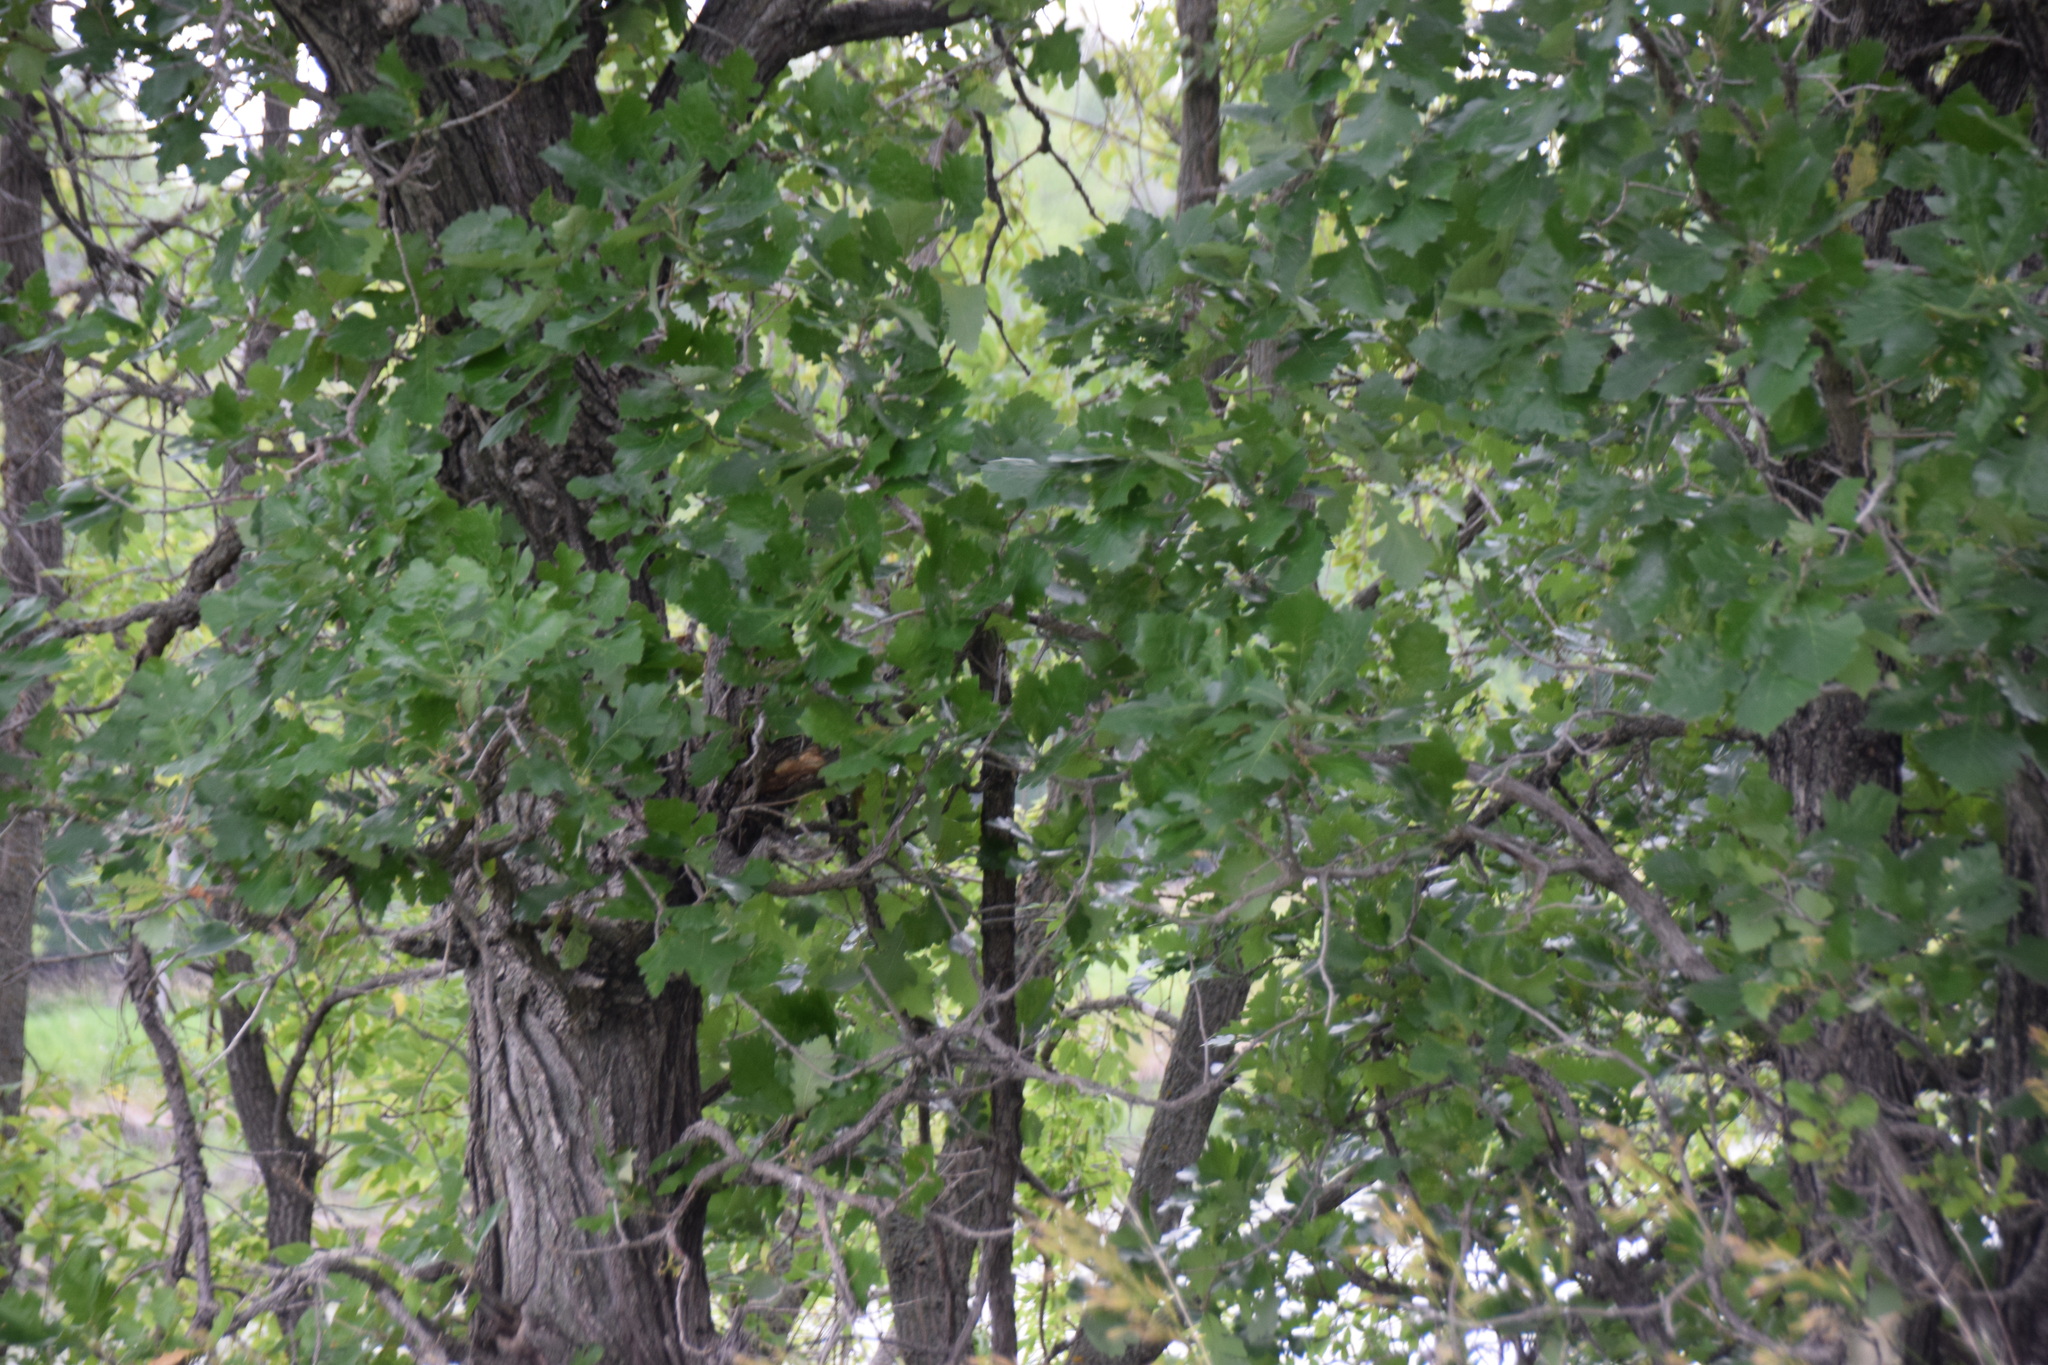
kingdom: Plantae
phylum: Tracheophyta
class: Magnoliopsida
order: Fagales
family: Fagaceae
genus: Quercus
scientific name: Quercus macrocarpa
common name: Bur oak
